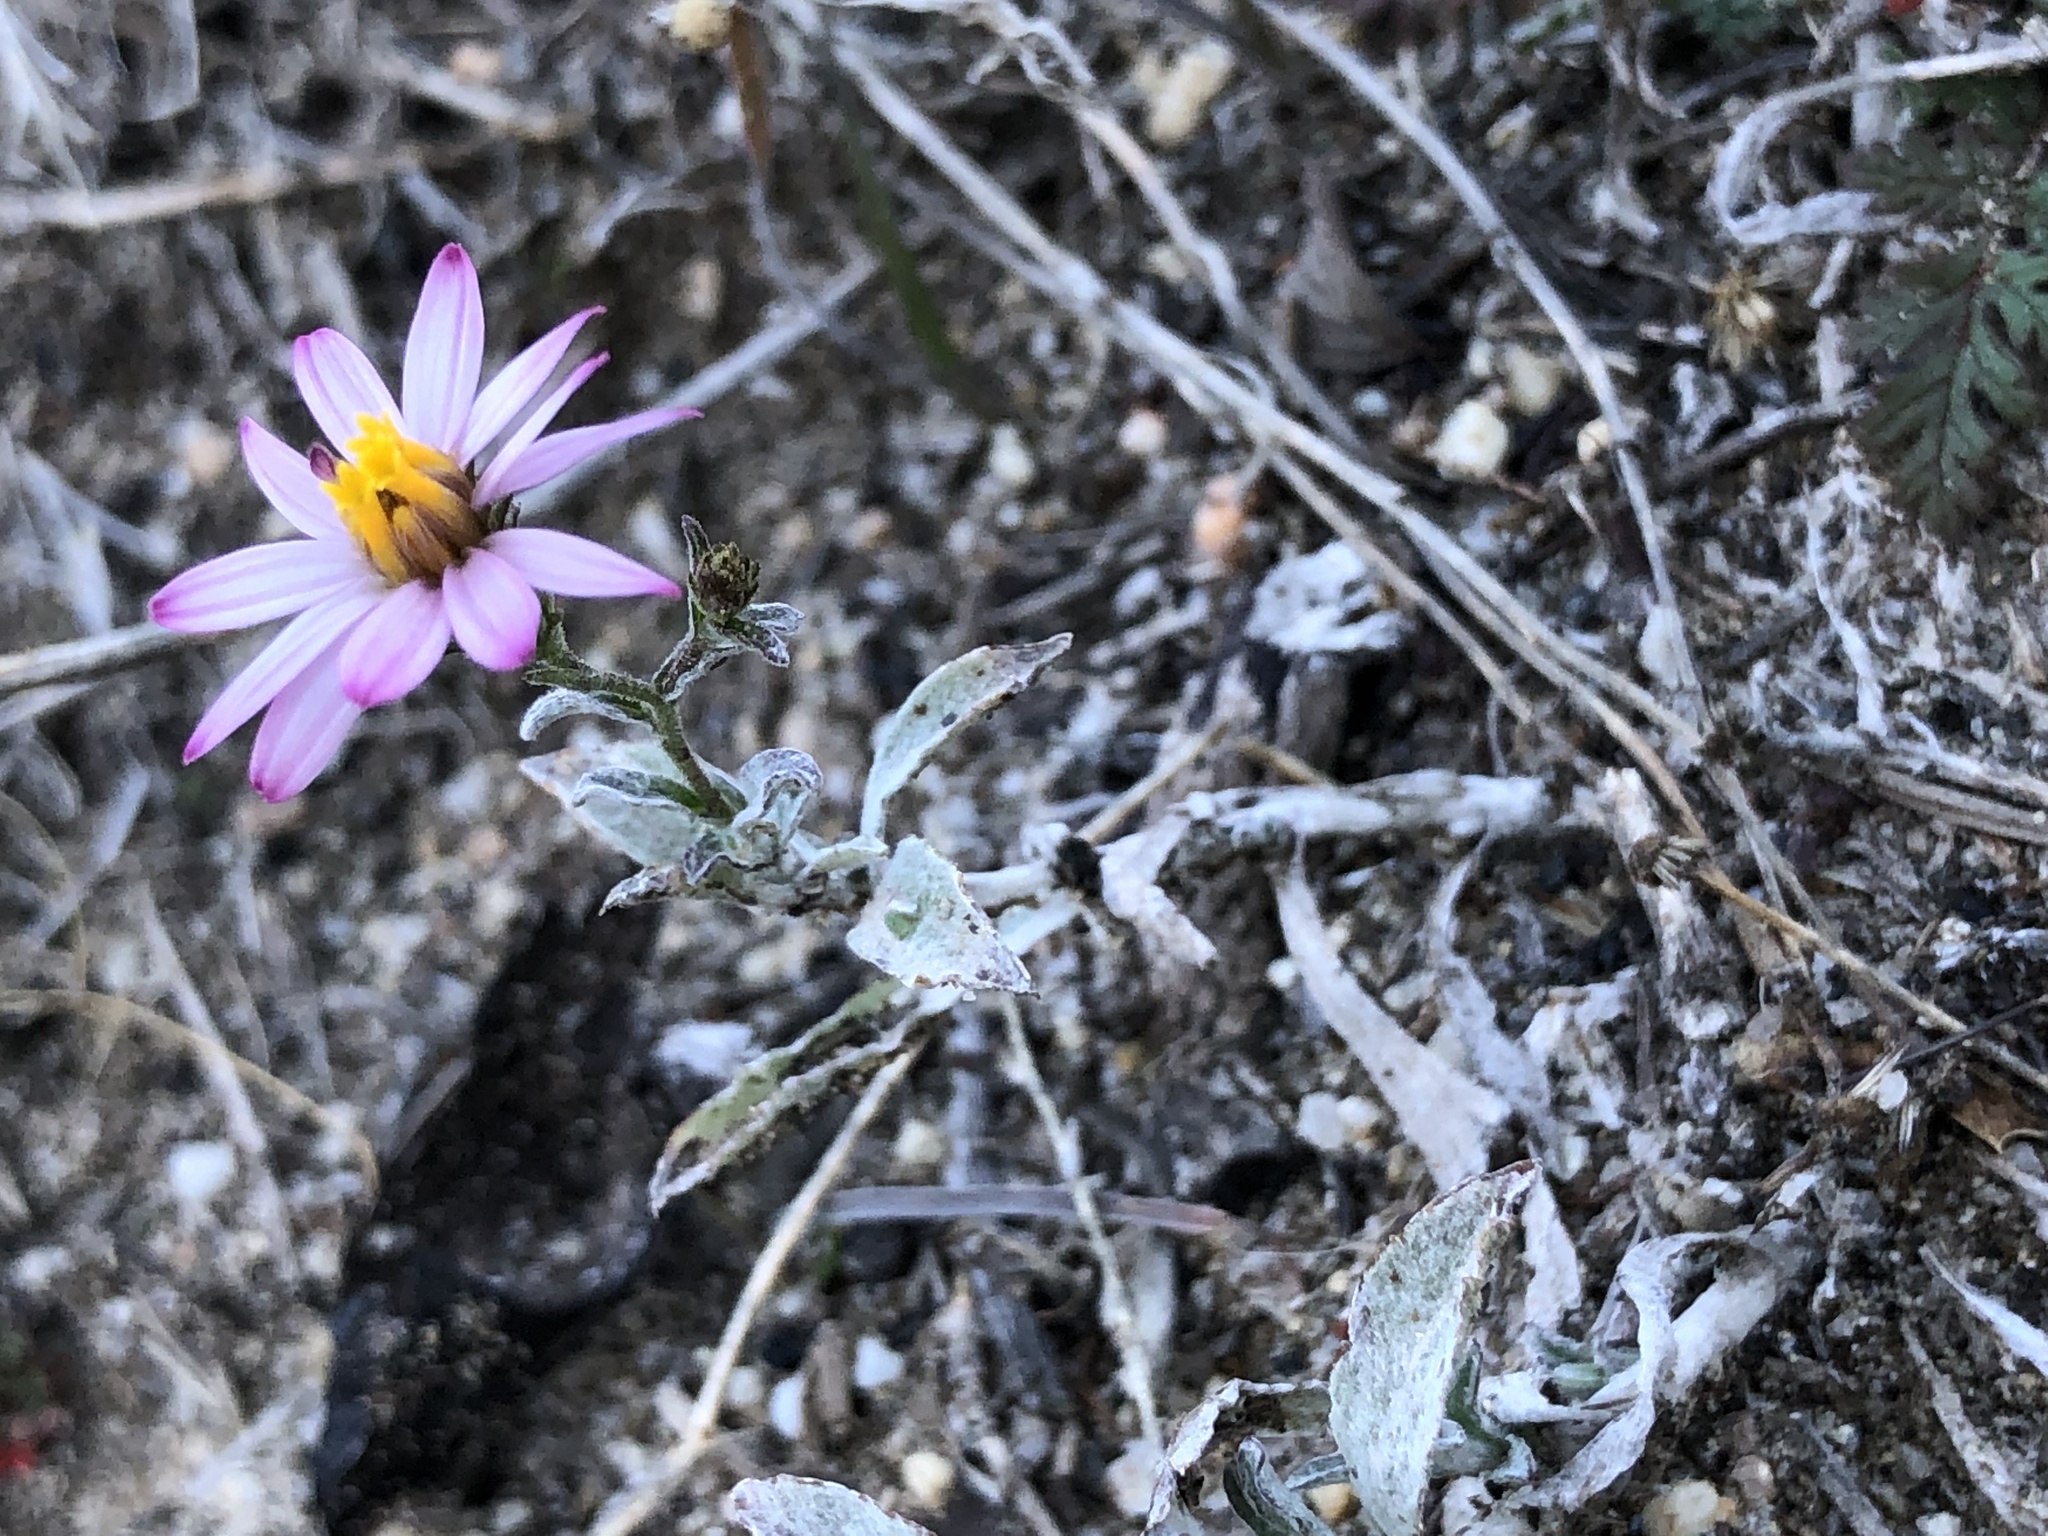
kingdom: Plantae
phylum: Tracheophyta
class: Magnoliopsida
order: Asterales
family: Asteraceae
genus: Corethrogyne
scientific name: Corethrogyne filaginifolia
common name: Sand-aster
